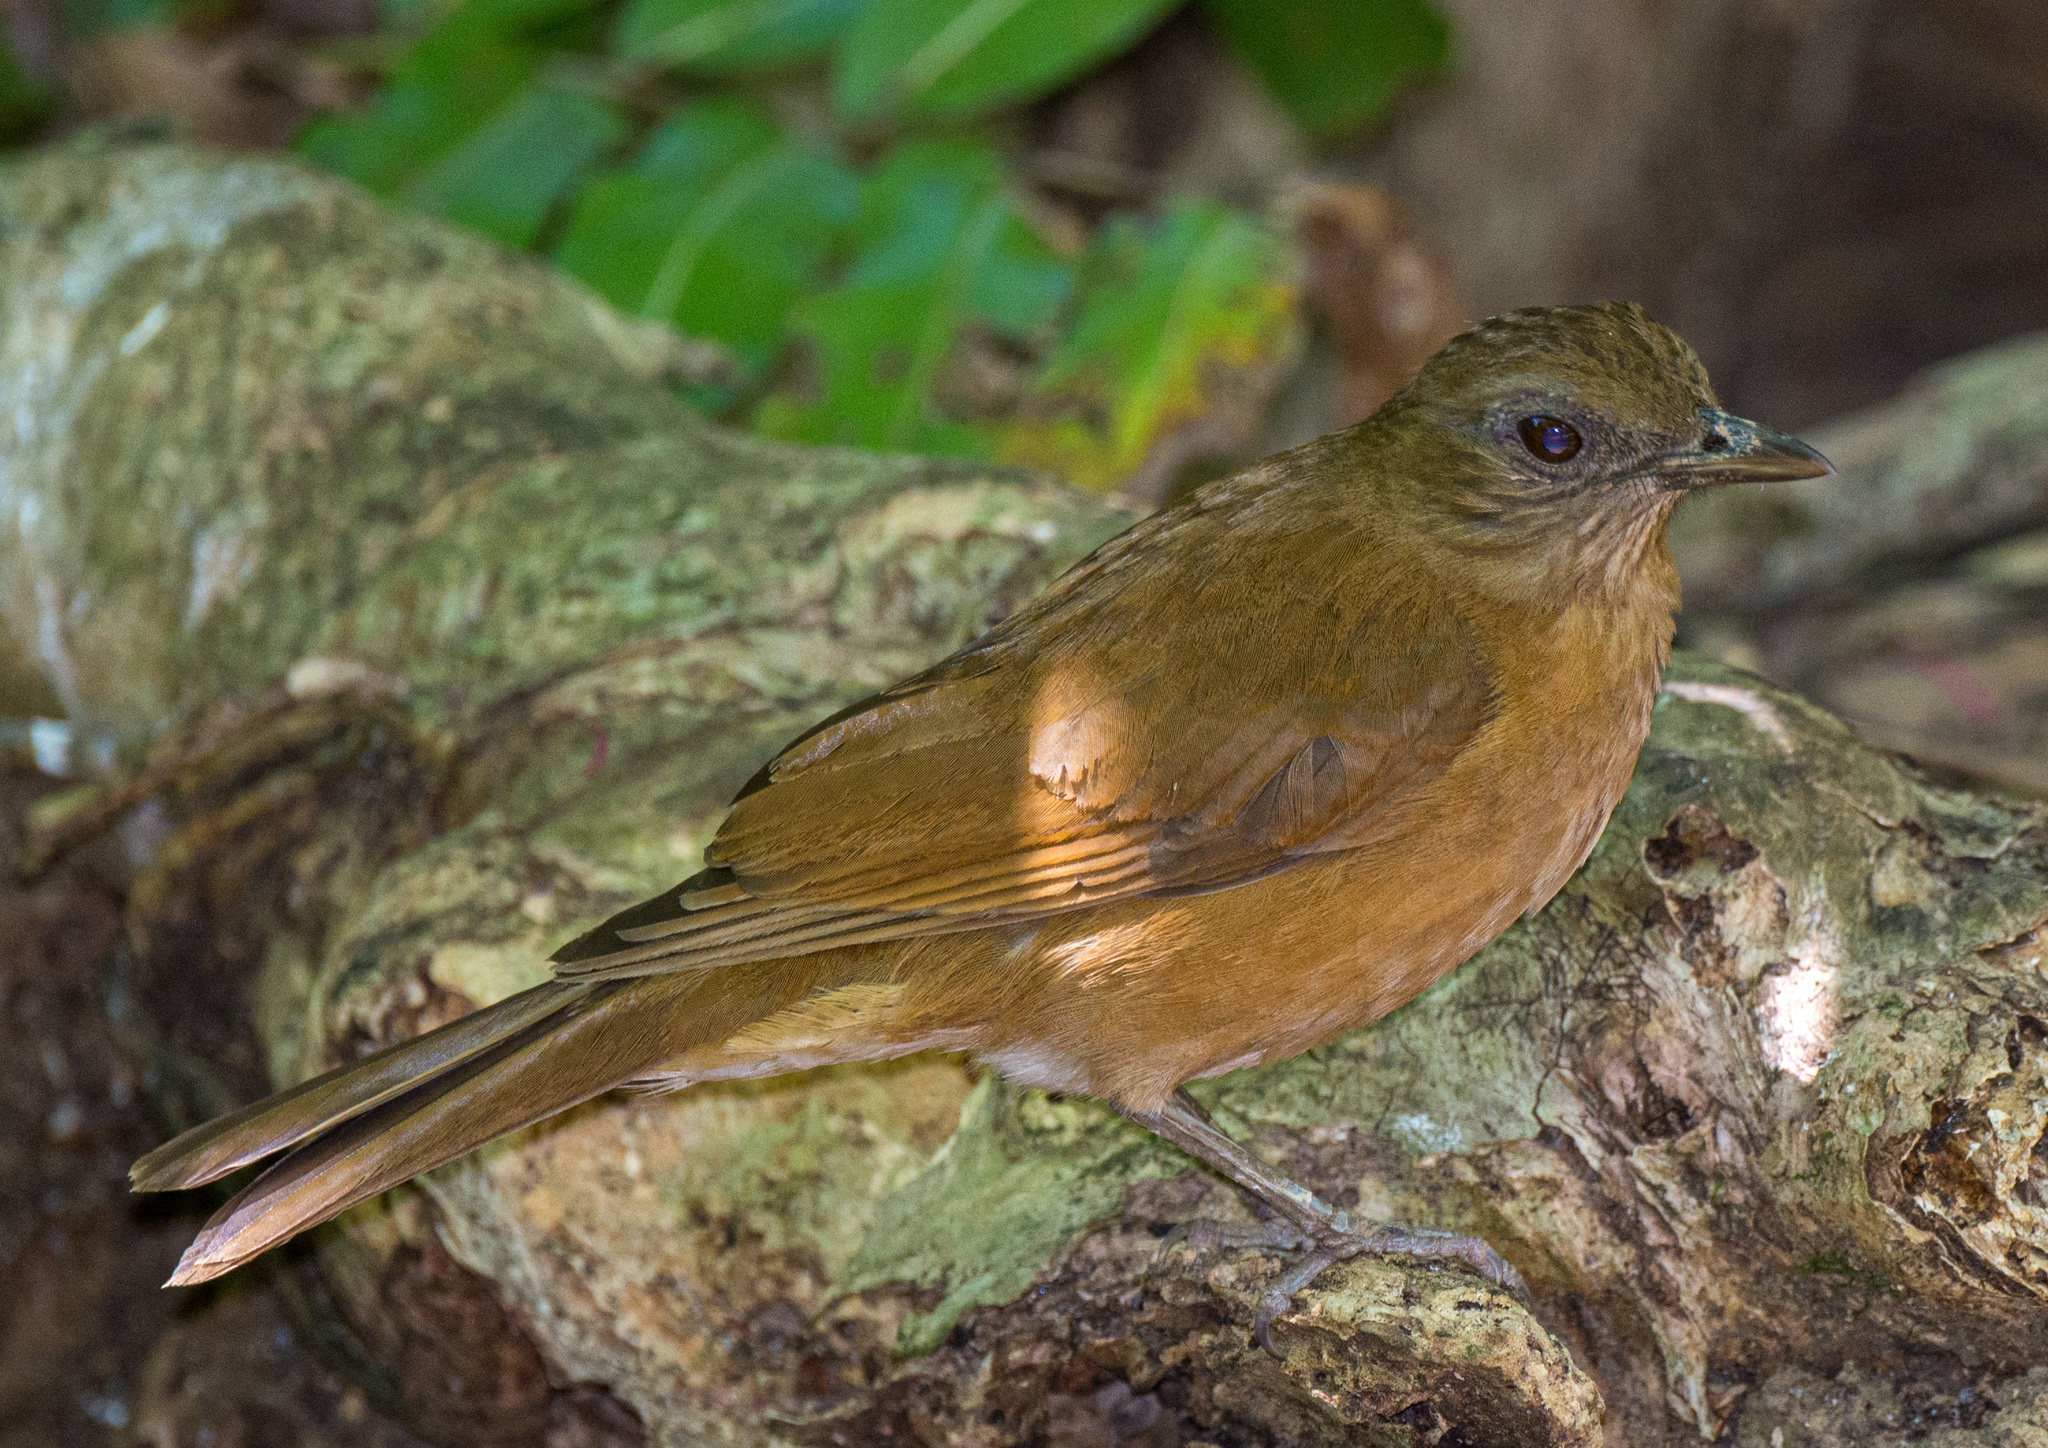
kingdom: Animalia
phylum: Chordata
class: Aves
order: Passeriformes
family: Turdidae
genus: Turdus
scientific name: Turdus fumigatus
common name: Cocoa thrush
